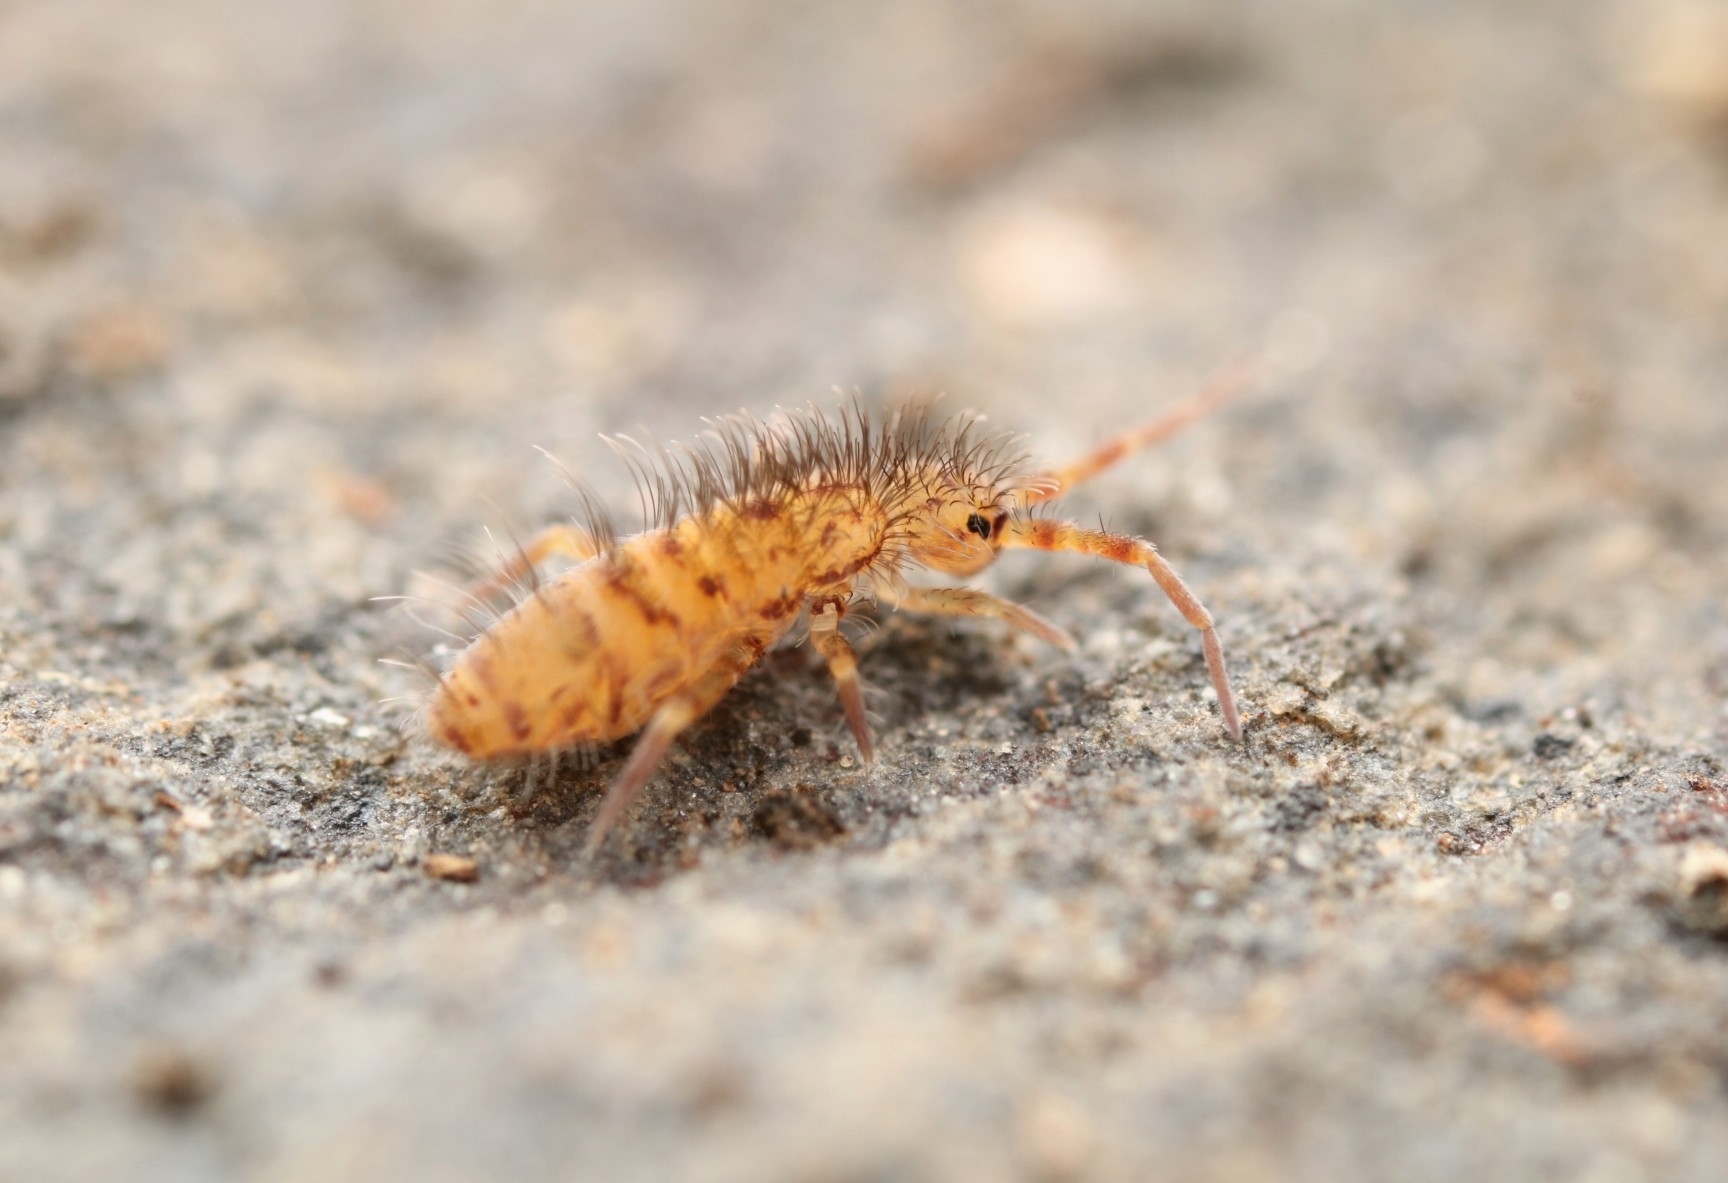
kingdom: Animalia
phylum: Arthropoda
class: Collembola
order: Entomobryomorpha
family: Orchesellidae
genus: Orchesella
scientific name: Orchesella villosa
